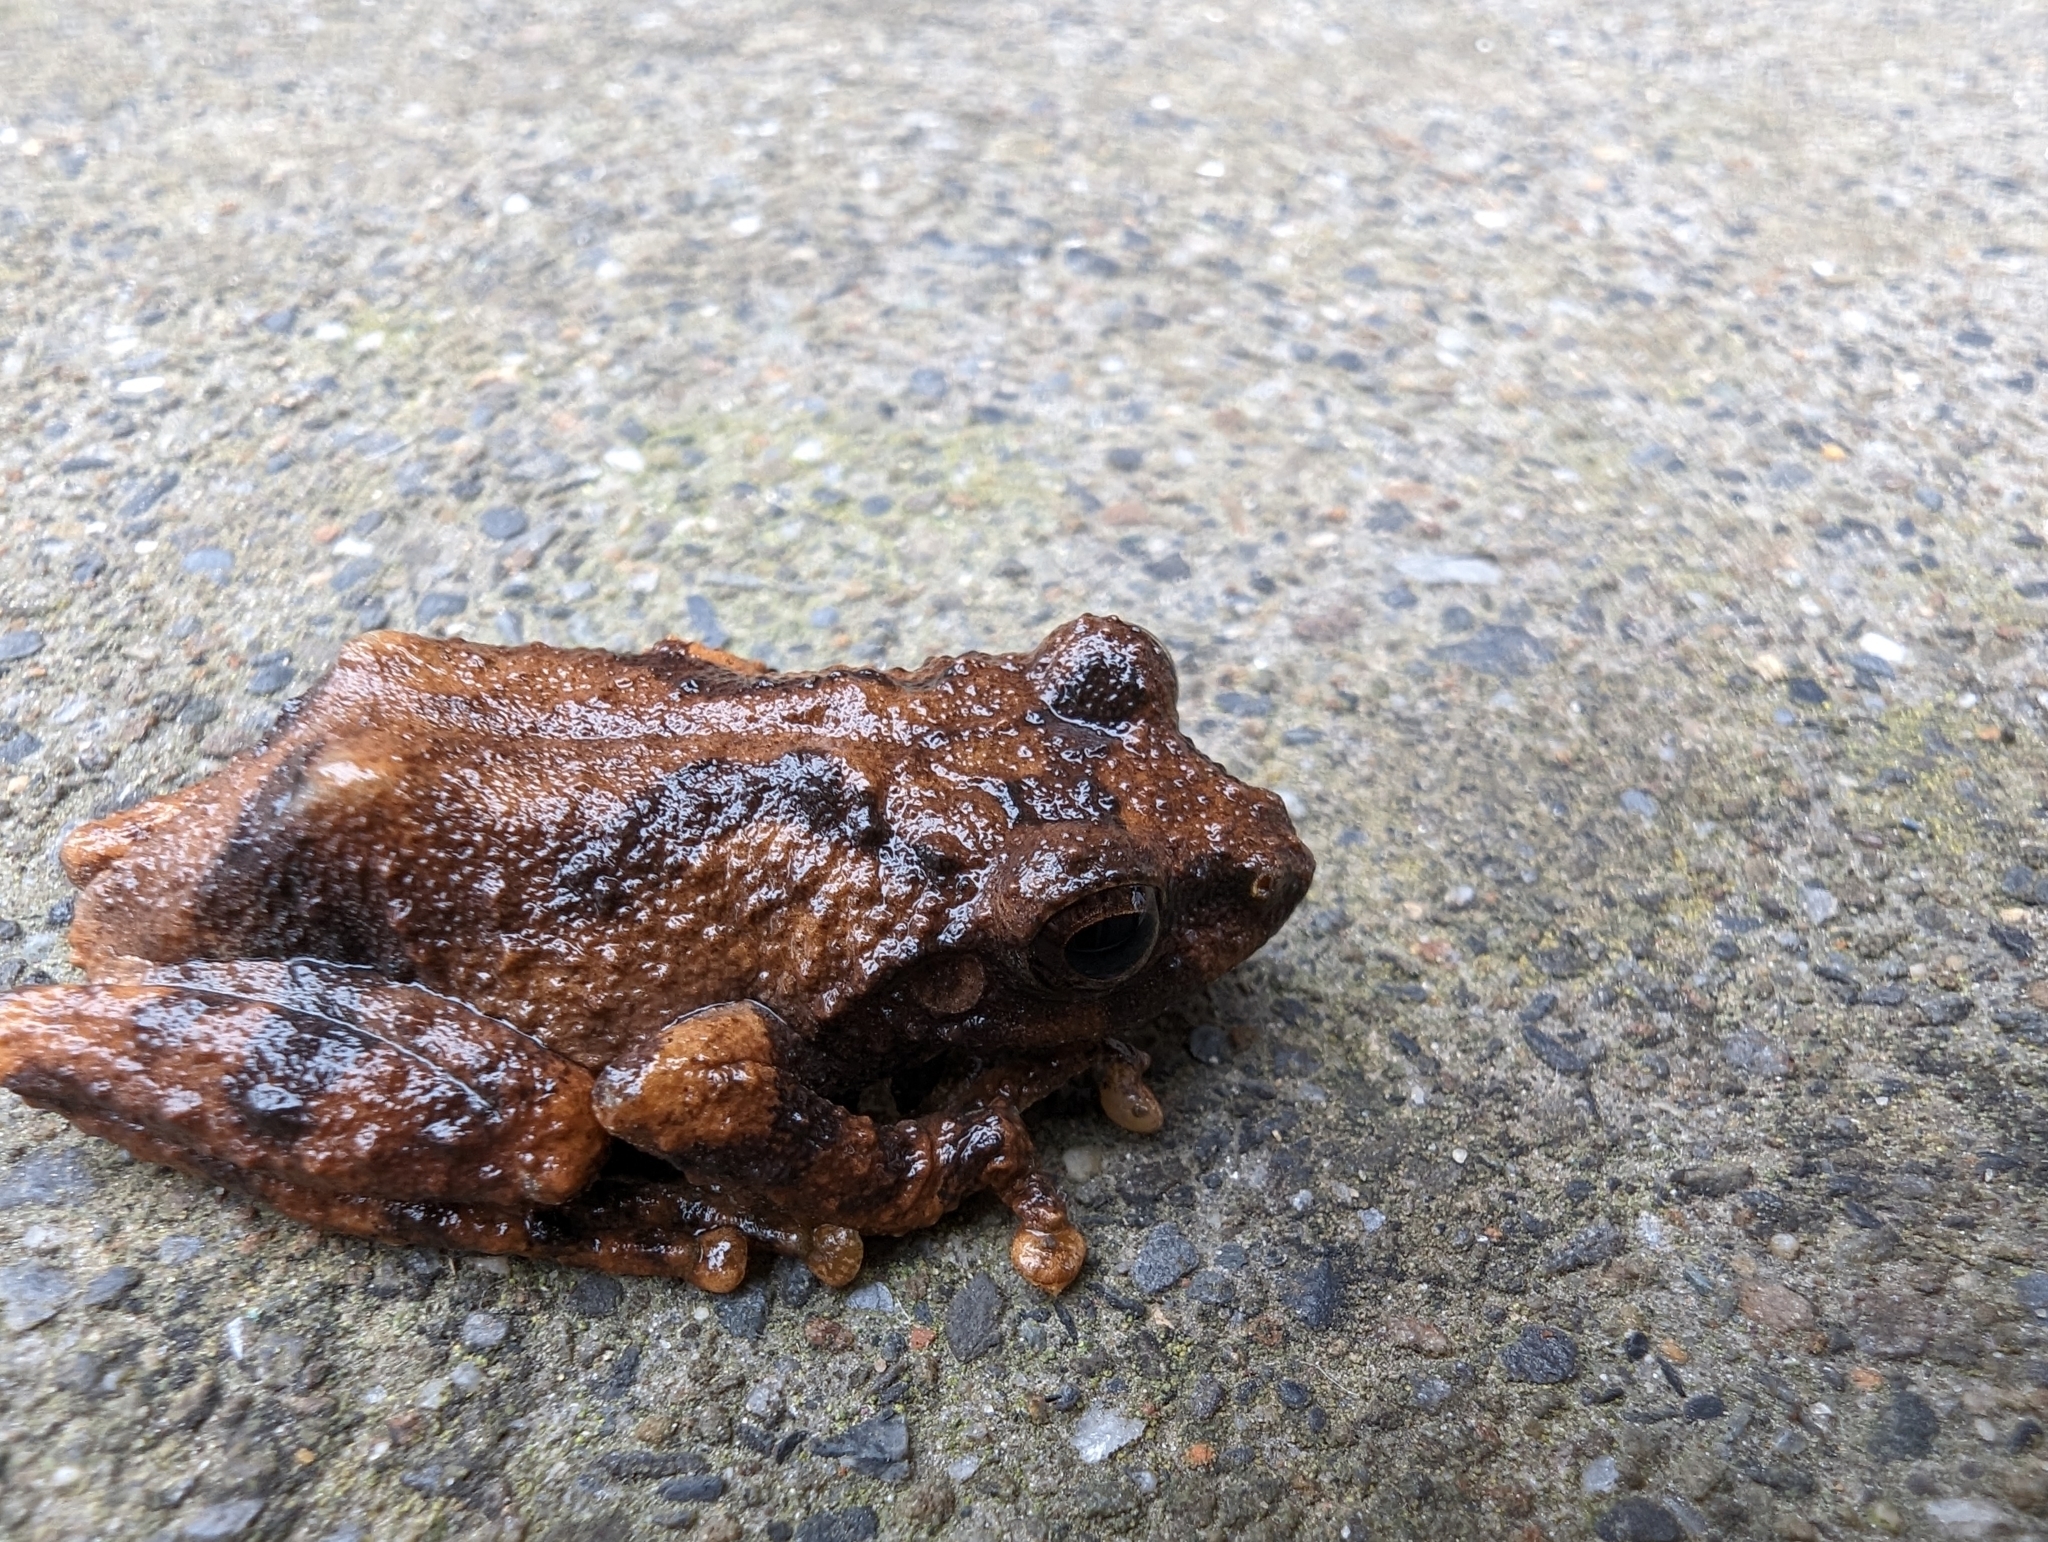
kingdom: Animalia
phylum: Chordata
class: Amphibia
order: Anura
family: Rhacophoridae
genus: Kurixalus
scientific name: Kurixalus idiootocus
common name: Temple treefrog
